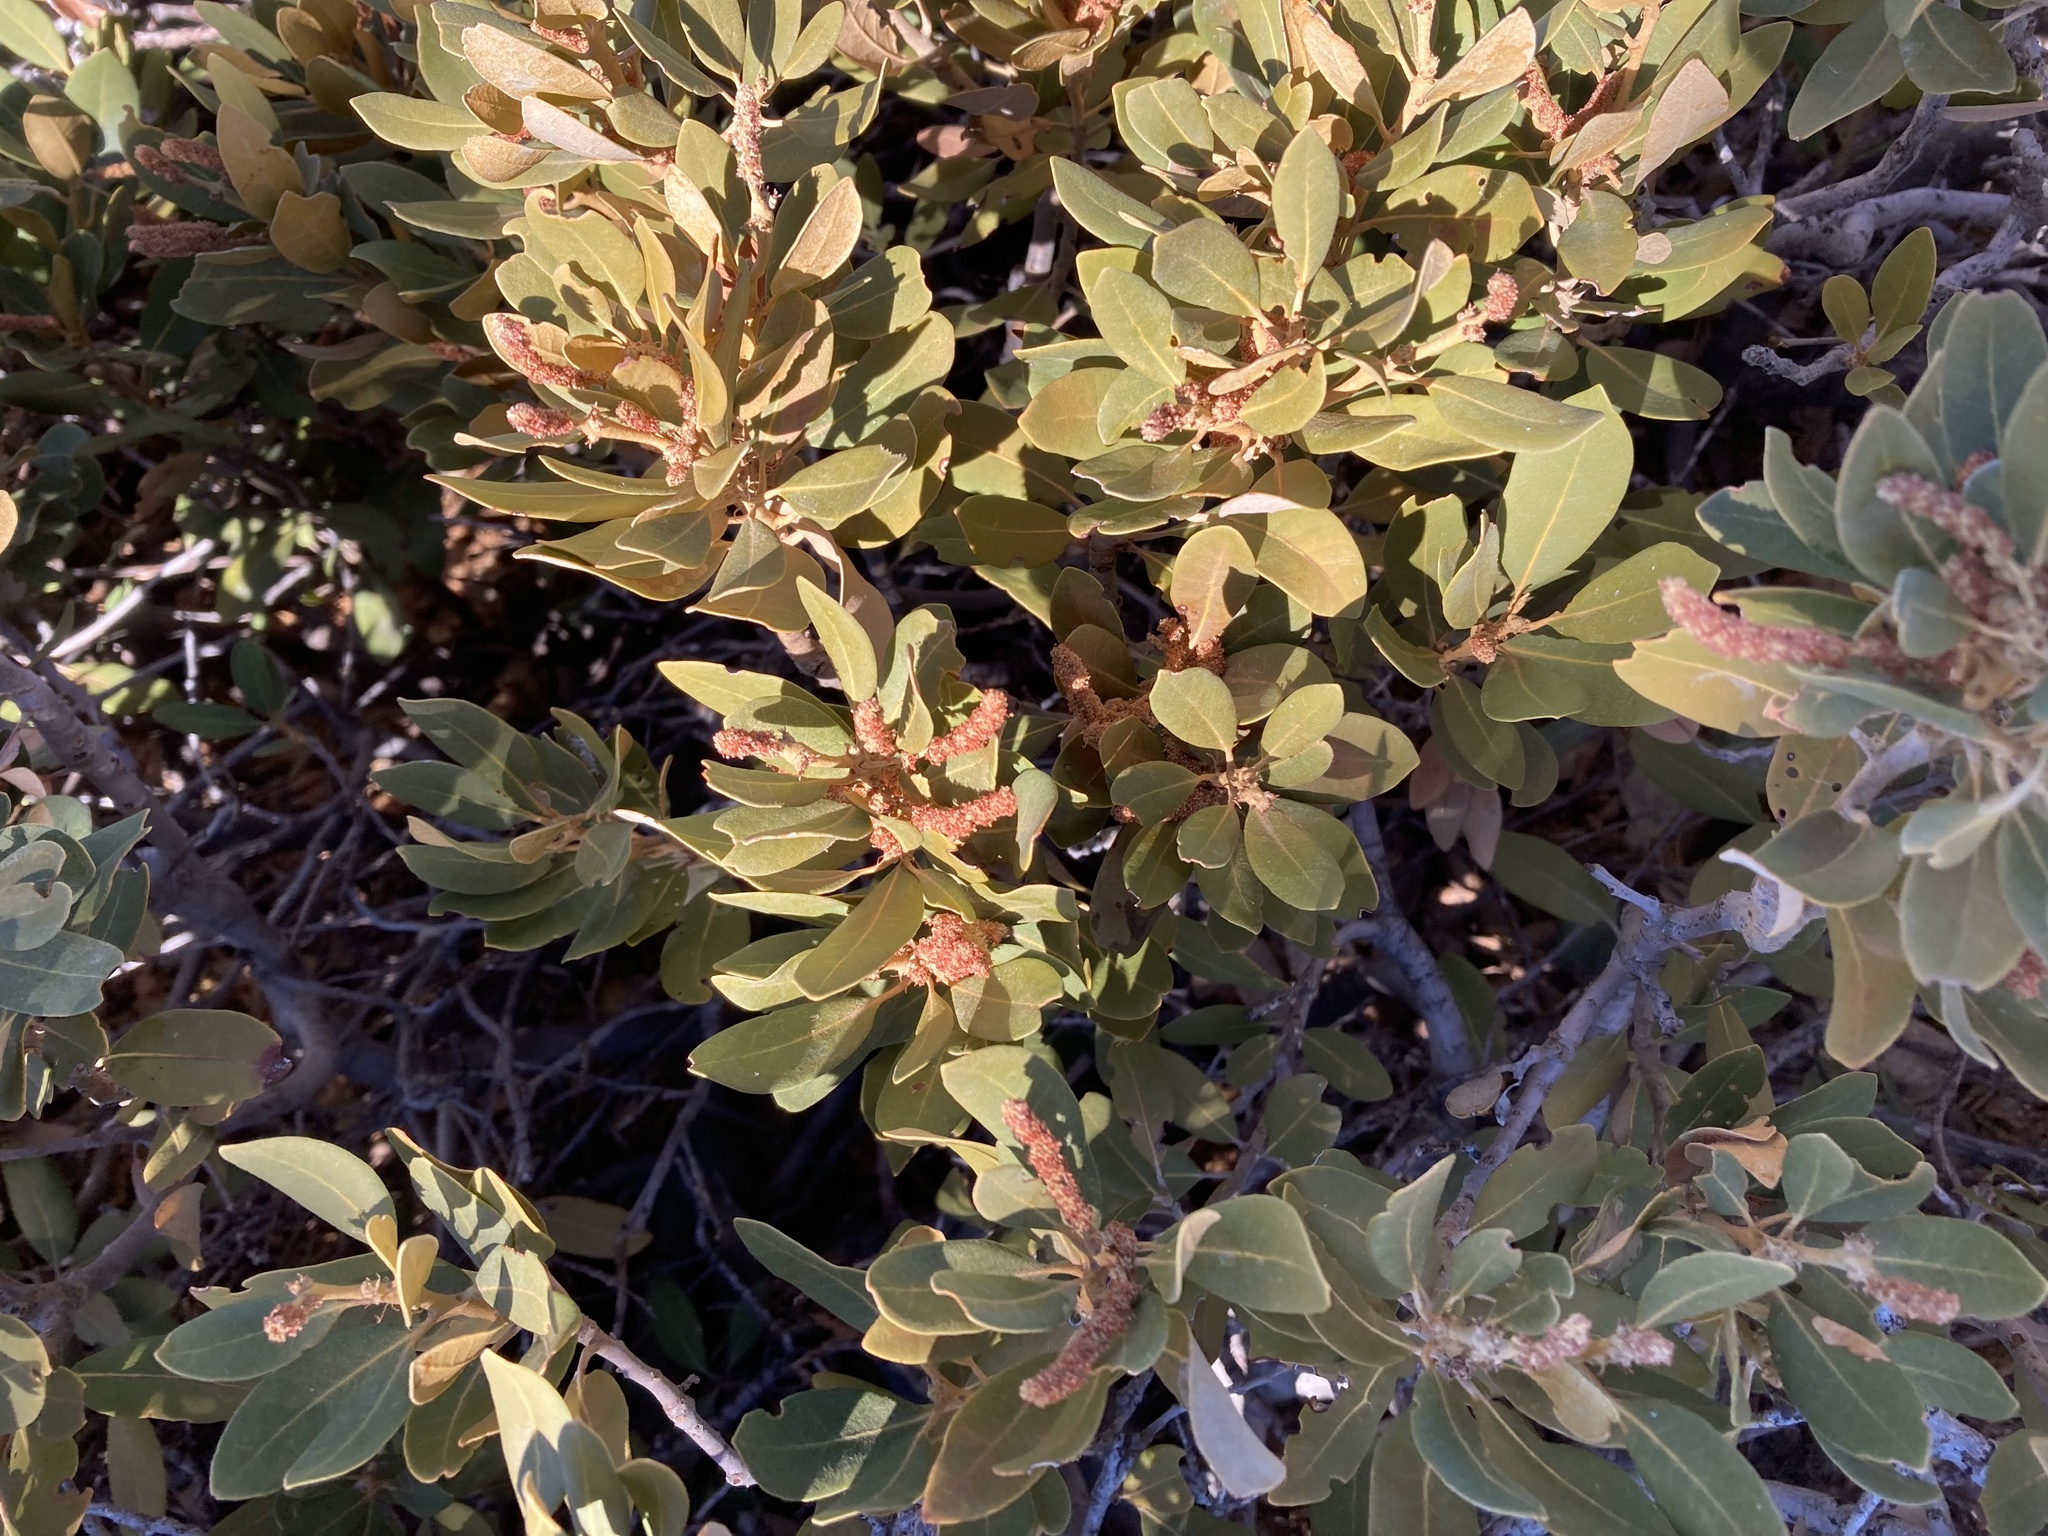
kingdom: Plantae
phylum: Tracheophyta
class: Magnoliopsida
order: Fagales
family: Fagaceae
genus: Chrysolepis
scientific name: Chrysolepis sempervirens
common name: Bush chinquapin
